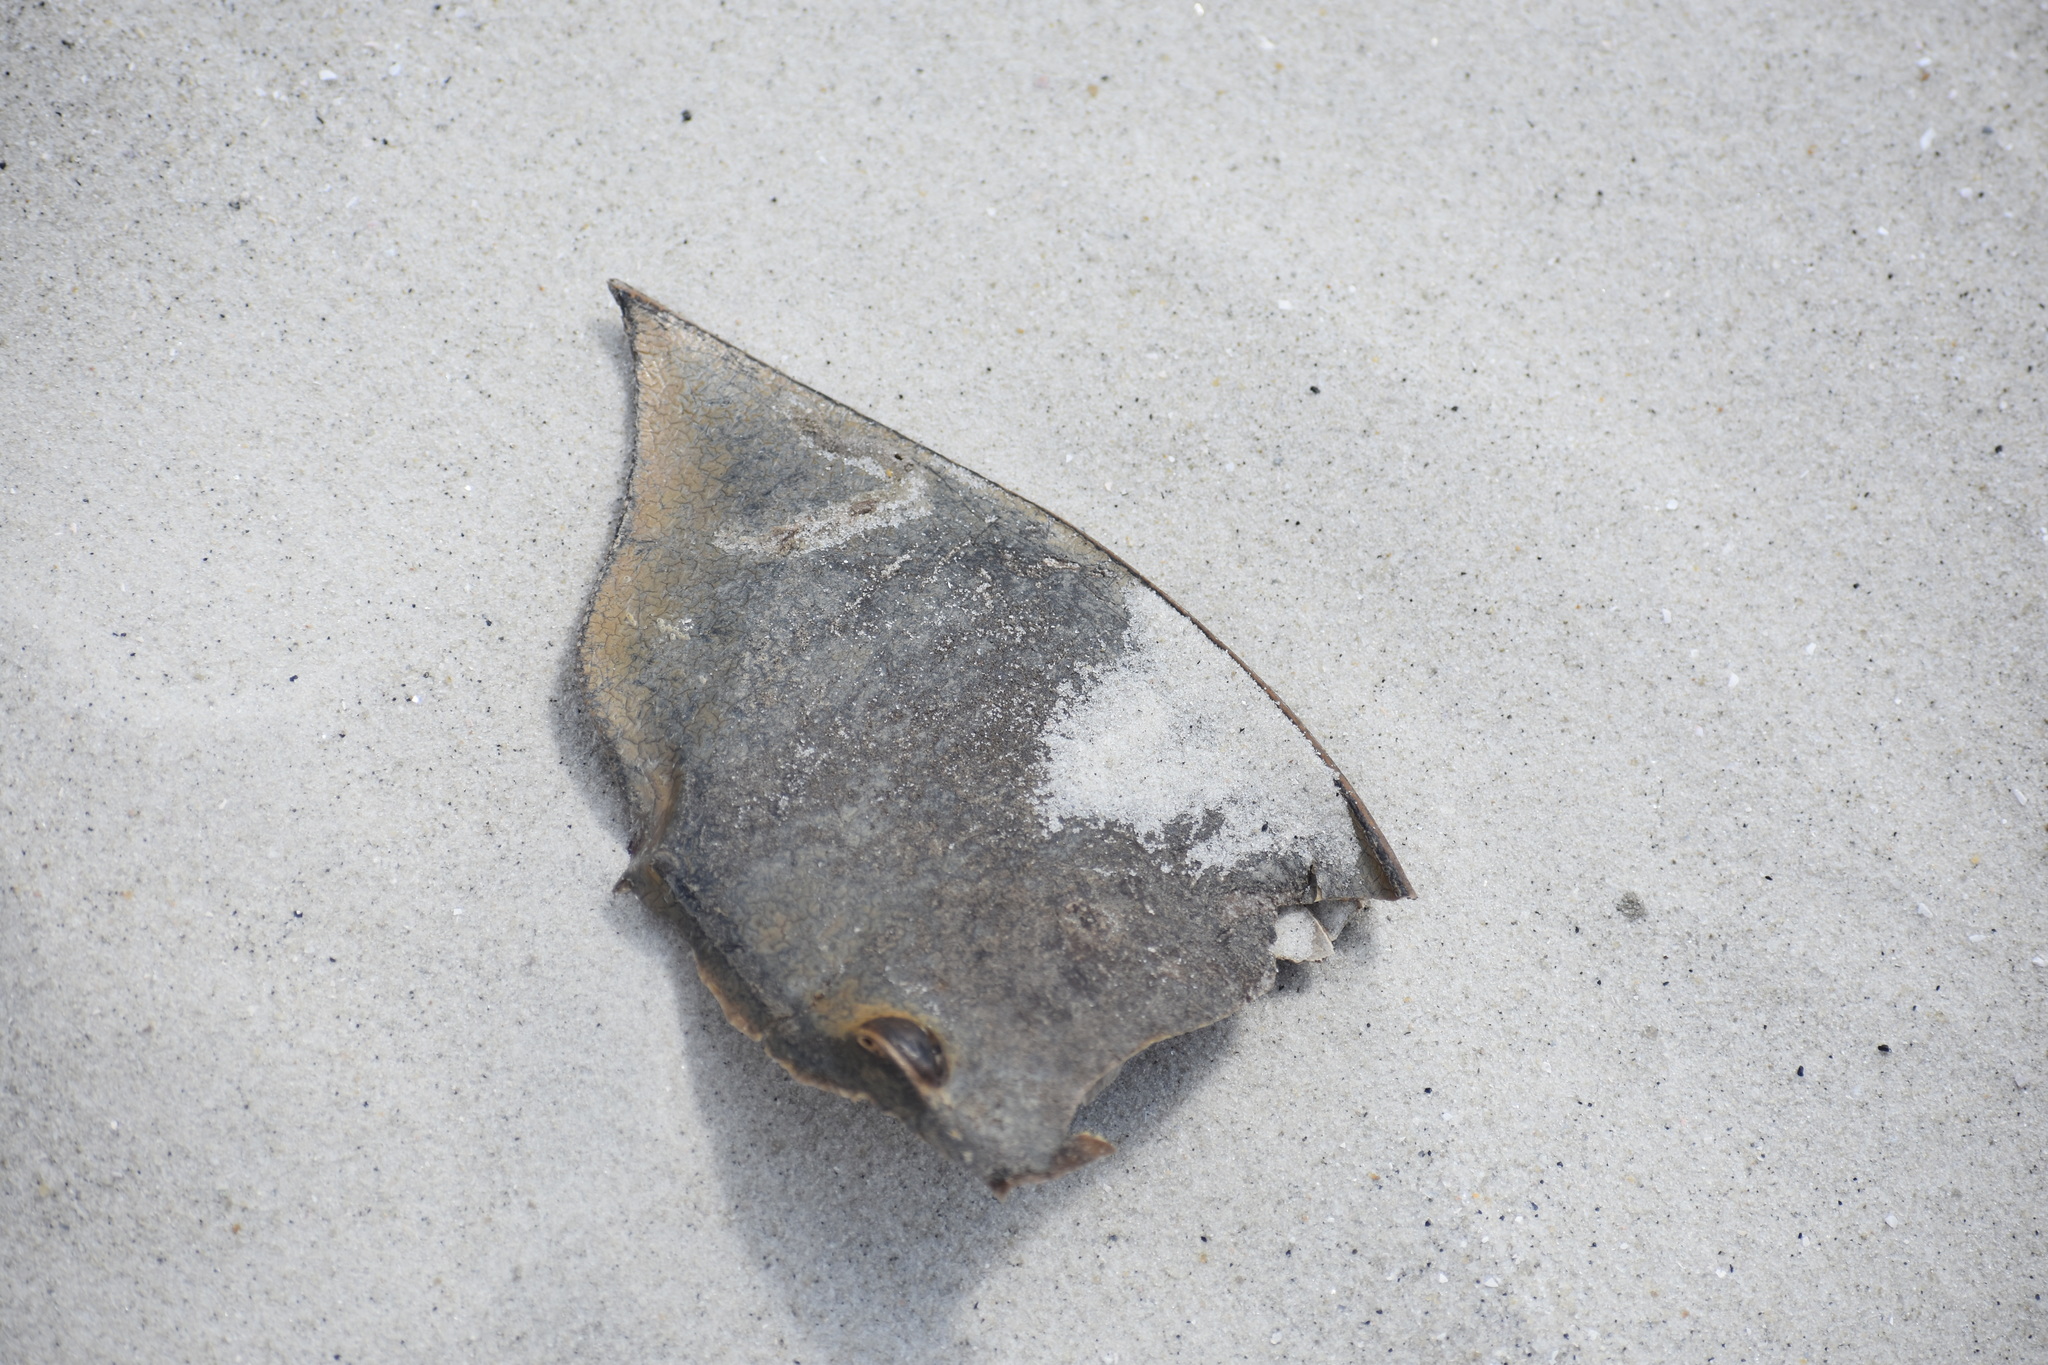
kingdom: Animalia
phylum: Arthropoda
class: Merostomata
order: Xiphosurida
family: Limulidae
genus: Limulus
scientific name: Limulus polyphemus
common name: Horseshoe crab
